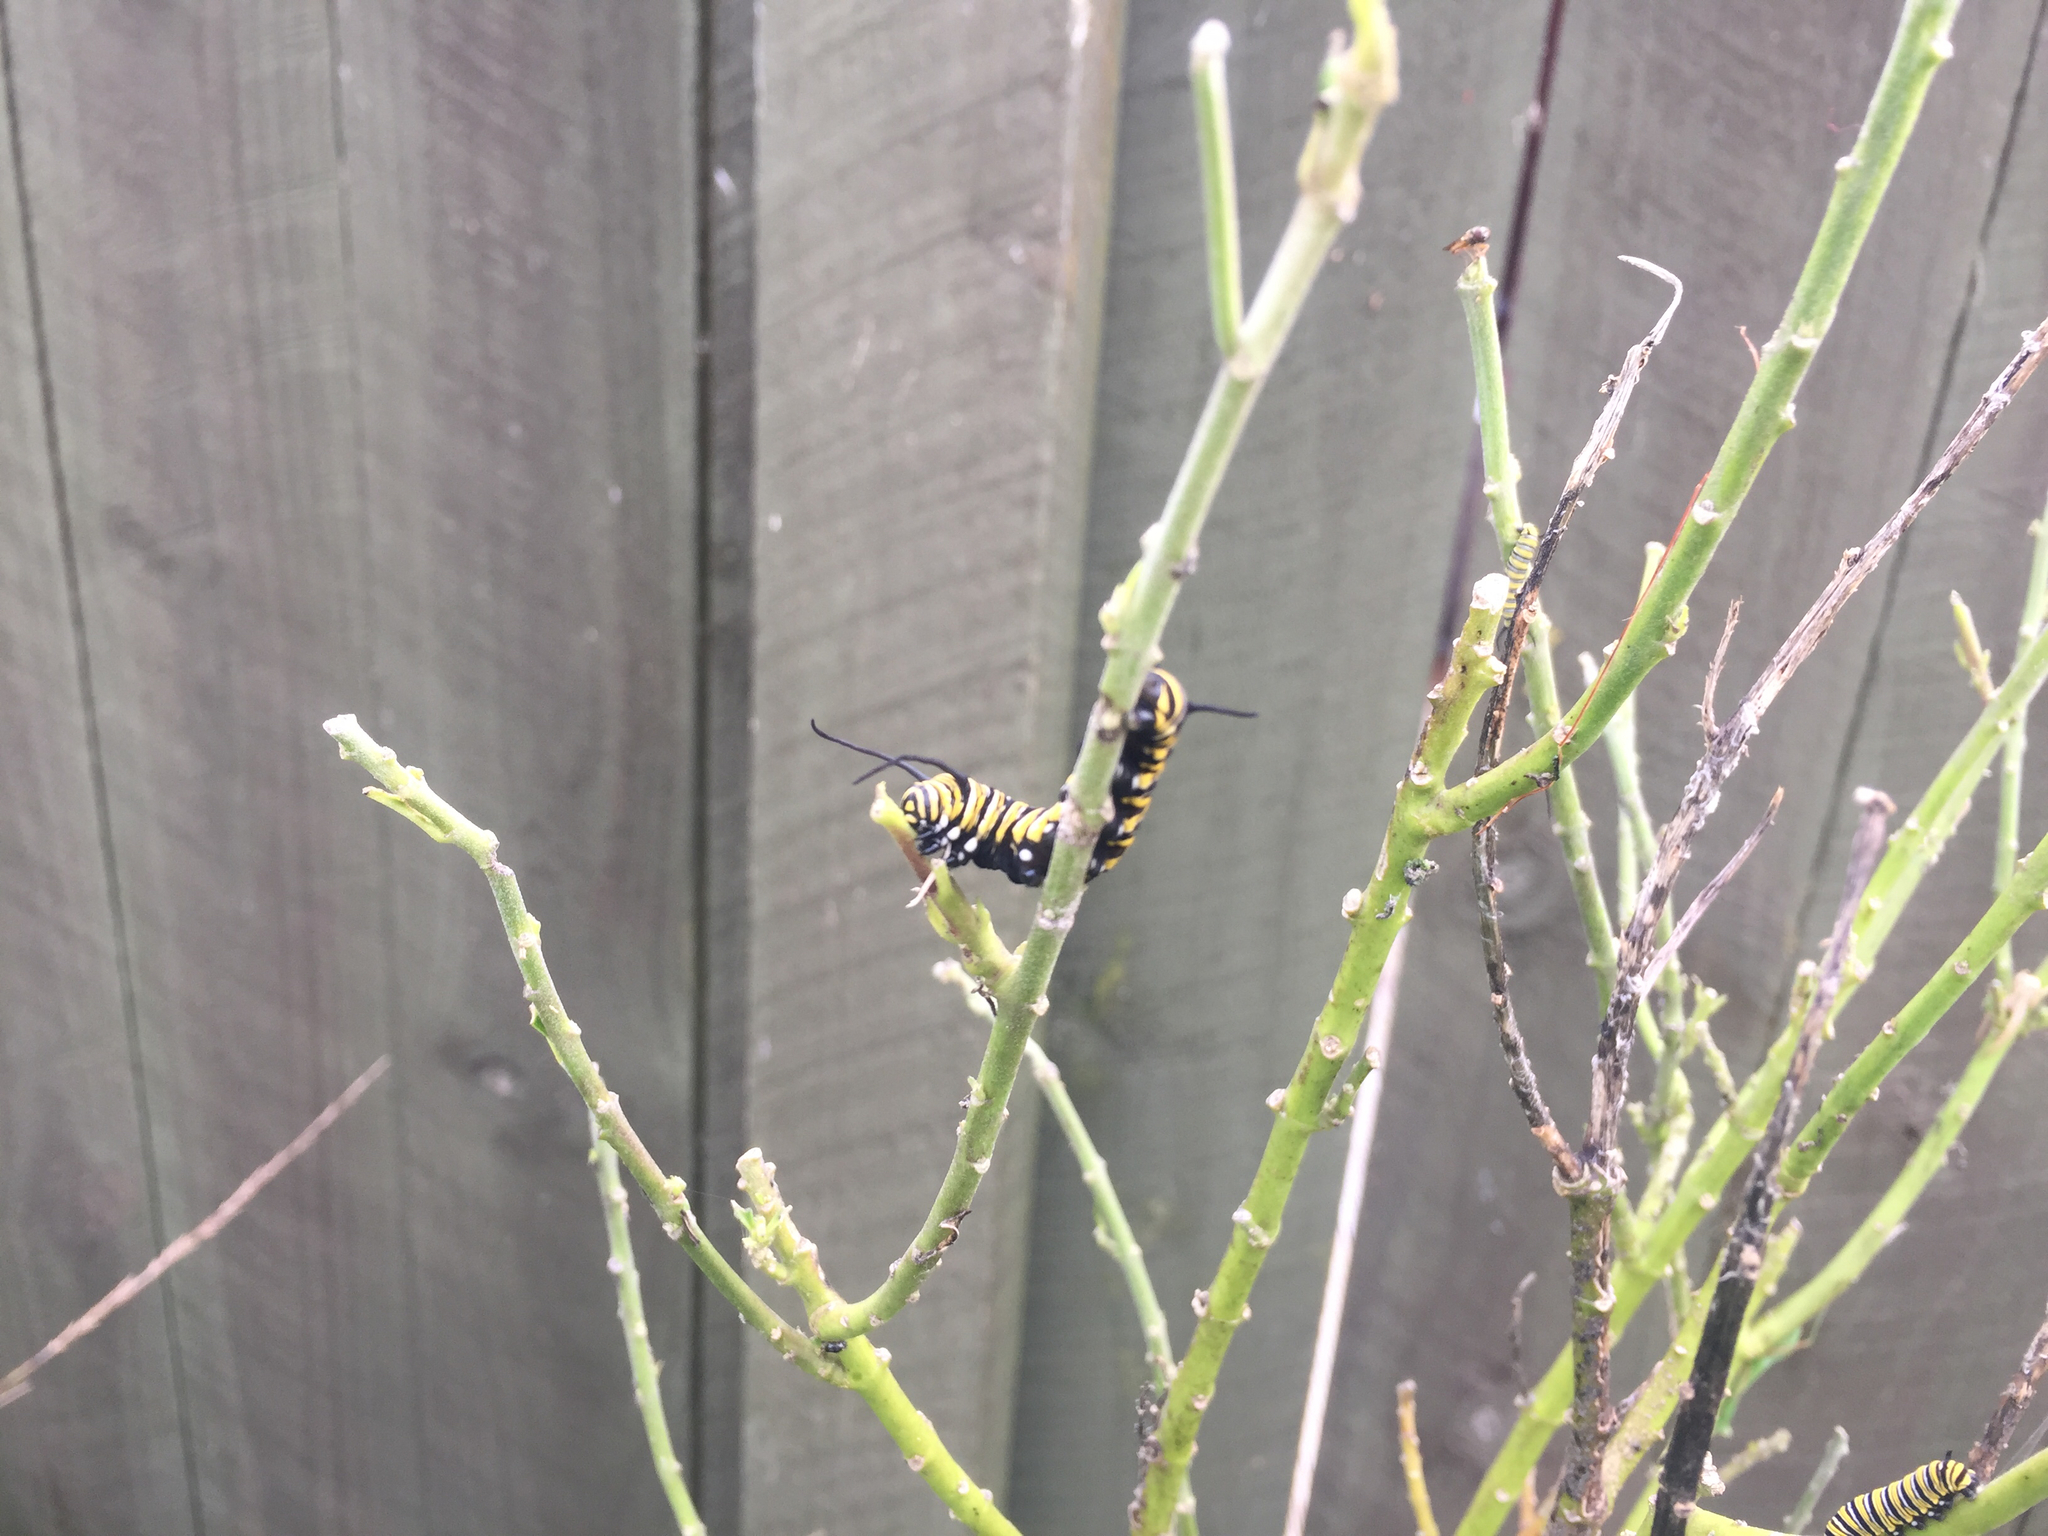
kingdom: Animalia
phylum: Arthropoda
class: Insecta
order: Lepidoptera
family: Nymphalidae
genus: Danaus
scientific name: Danaus plexippus
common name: Monarch
